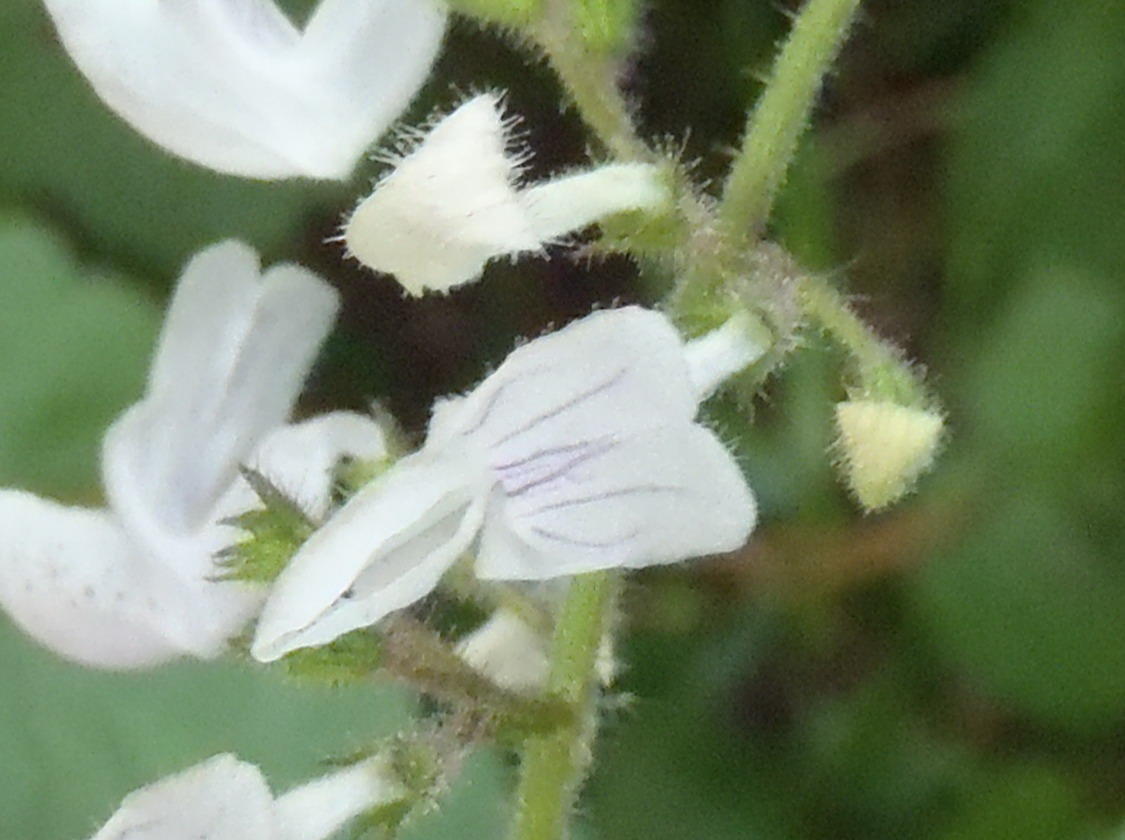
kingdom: Plantae
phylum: Tracheophyta
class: Magnoliopsida
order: Lamiales
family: Lamiaceae
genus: Equilabium
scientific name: Equilabium laxiflorum
